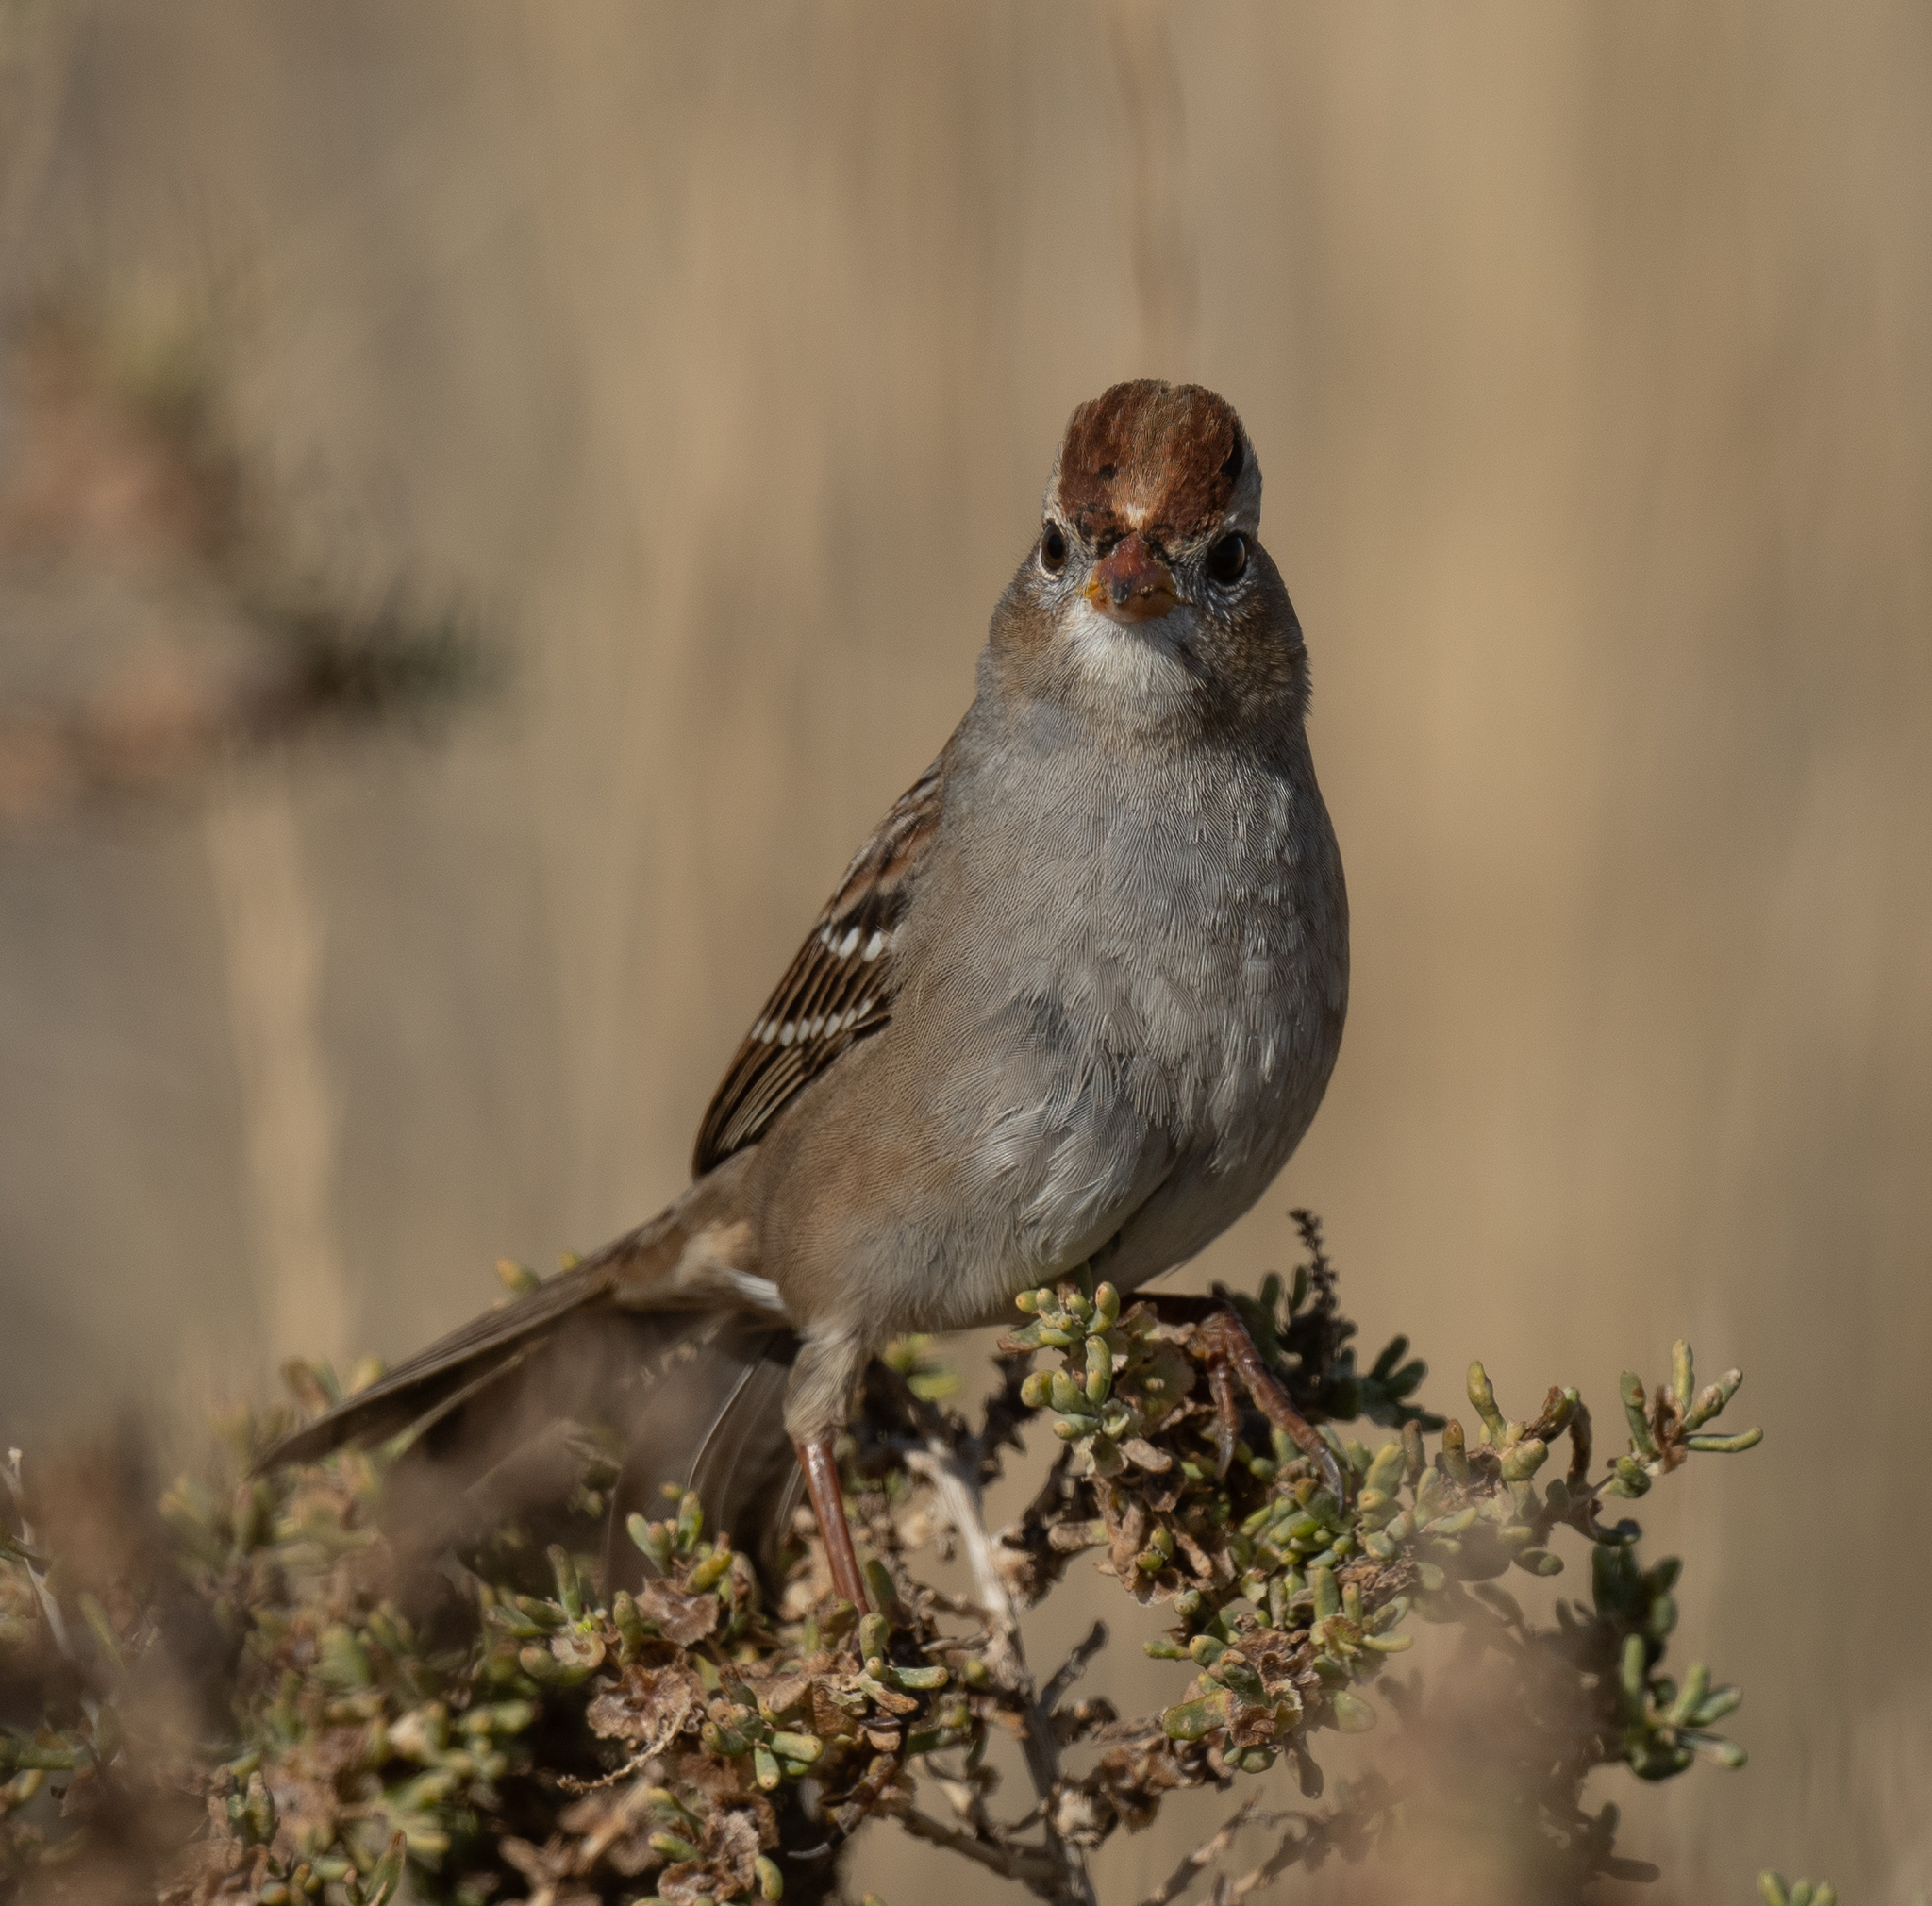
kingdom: Animalia
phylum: Chordata
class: Aves
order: Passeriformes
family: Passerellidae
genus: Zonotrichia
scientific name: Zonotrichia leucophrys
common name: White-crowned sparrow
